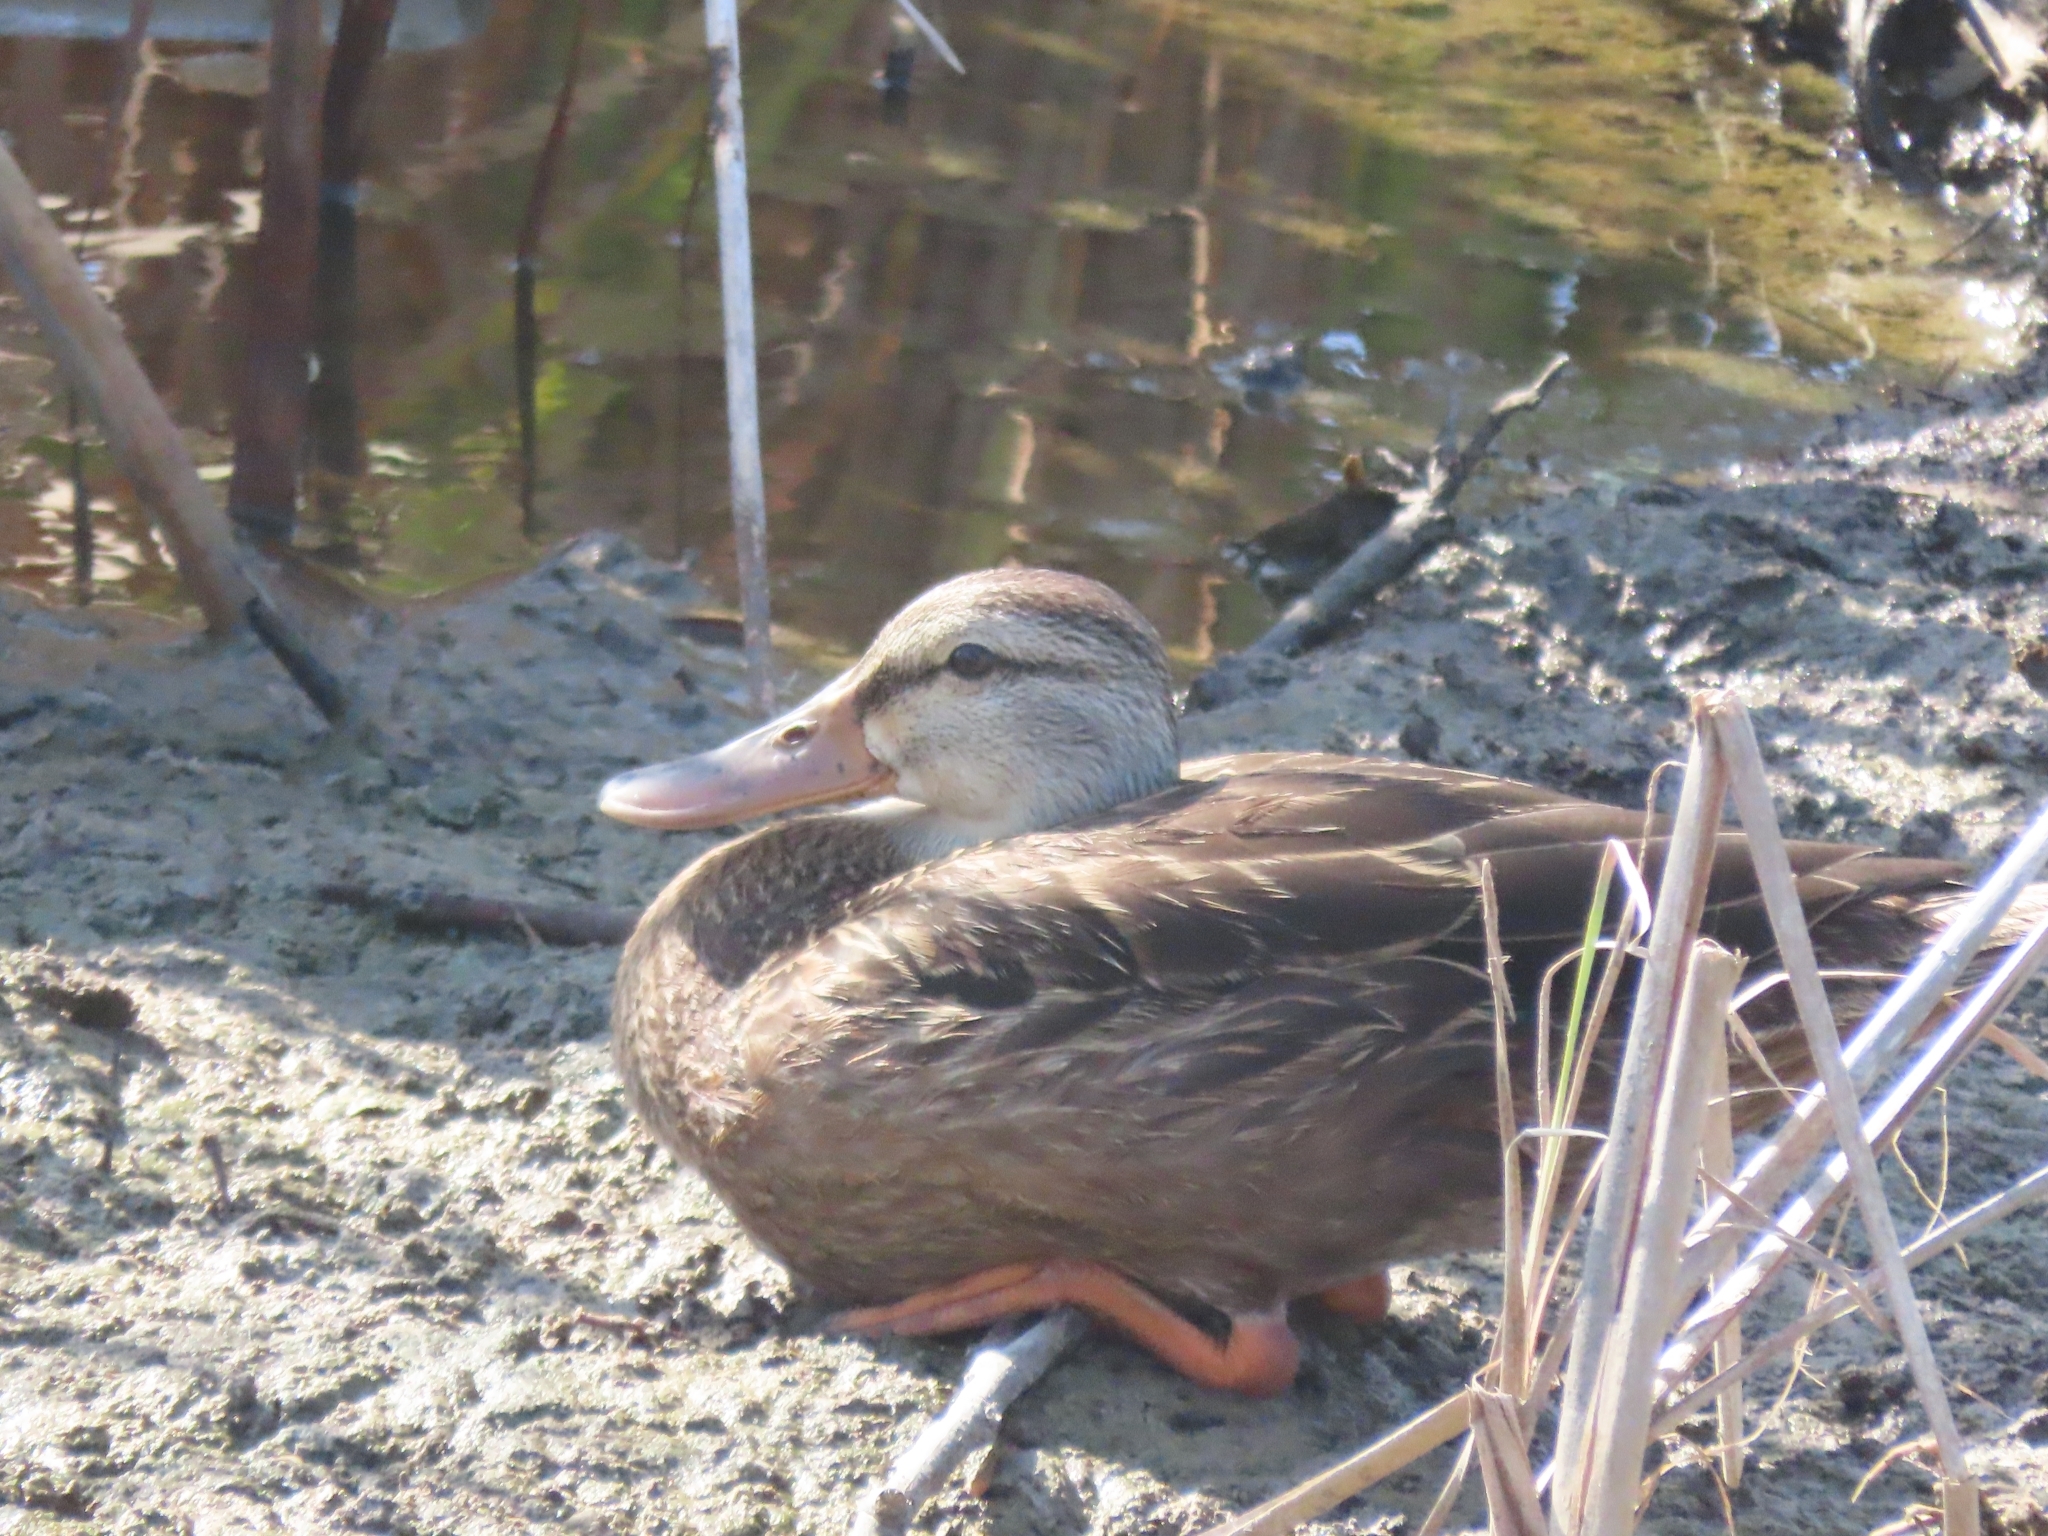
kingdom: Animalia
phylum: Chordata
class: Aves
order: Anseriformes
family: Anatidae
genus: Anas
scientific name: Anas fulvigula
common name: Mottled duck
